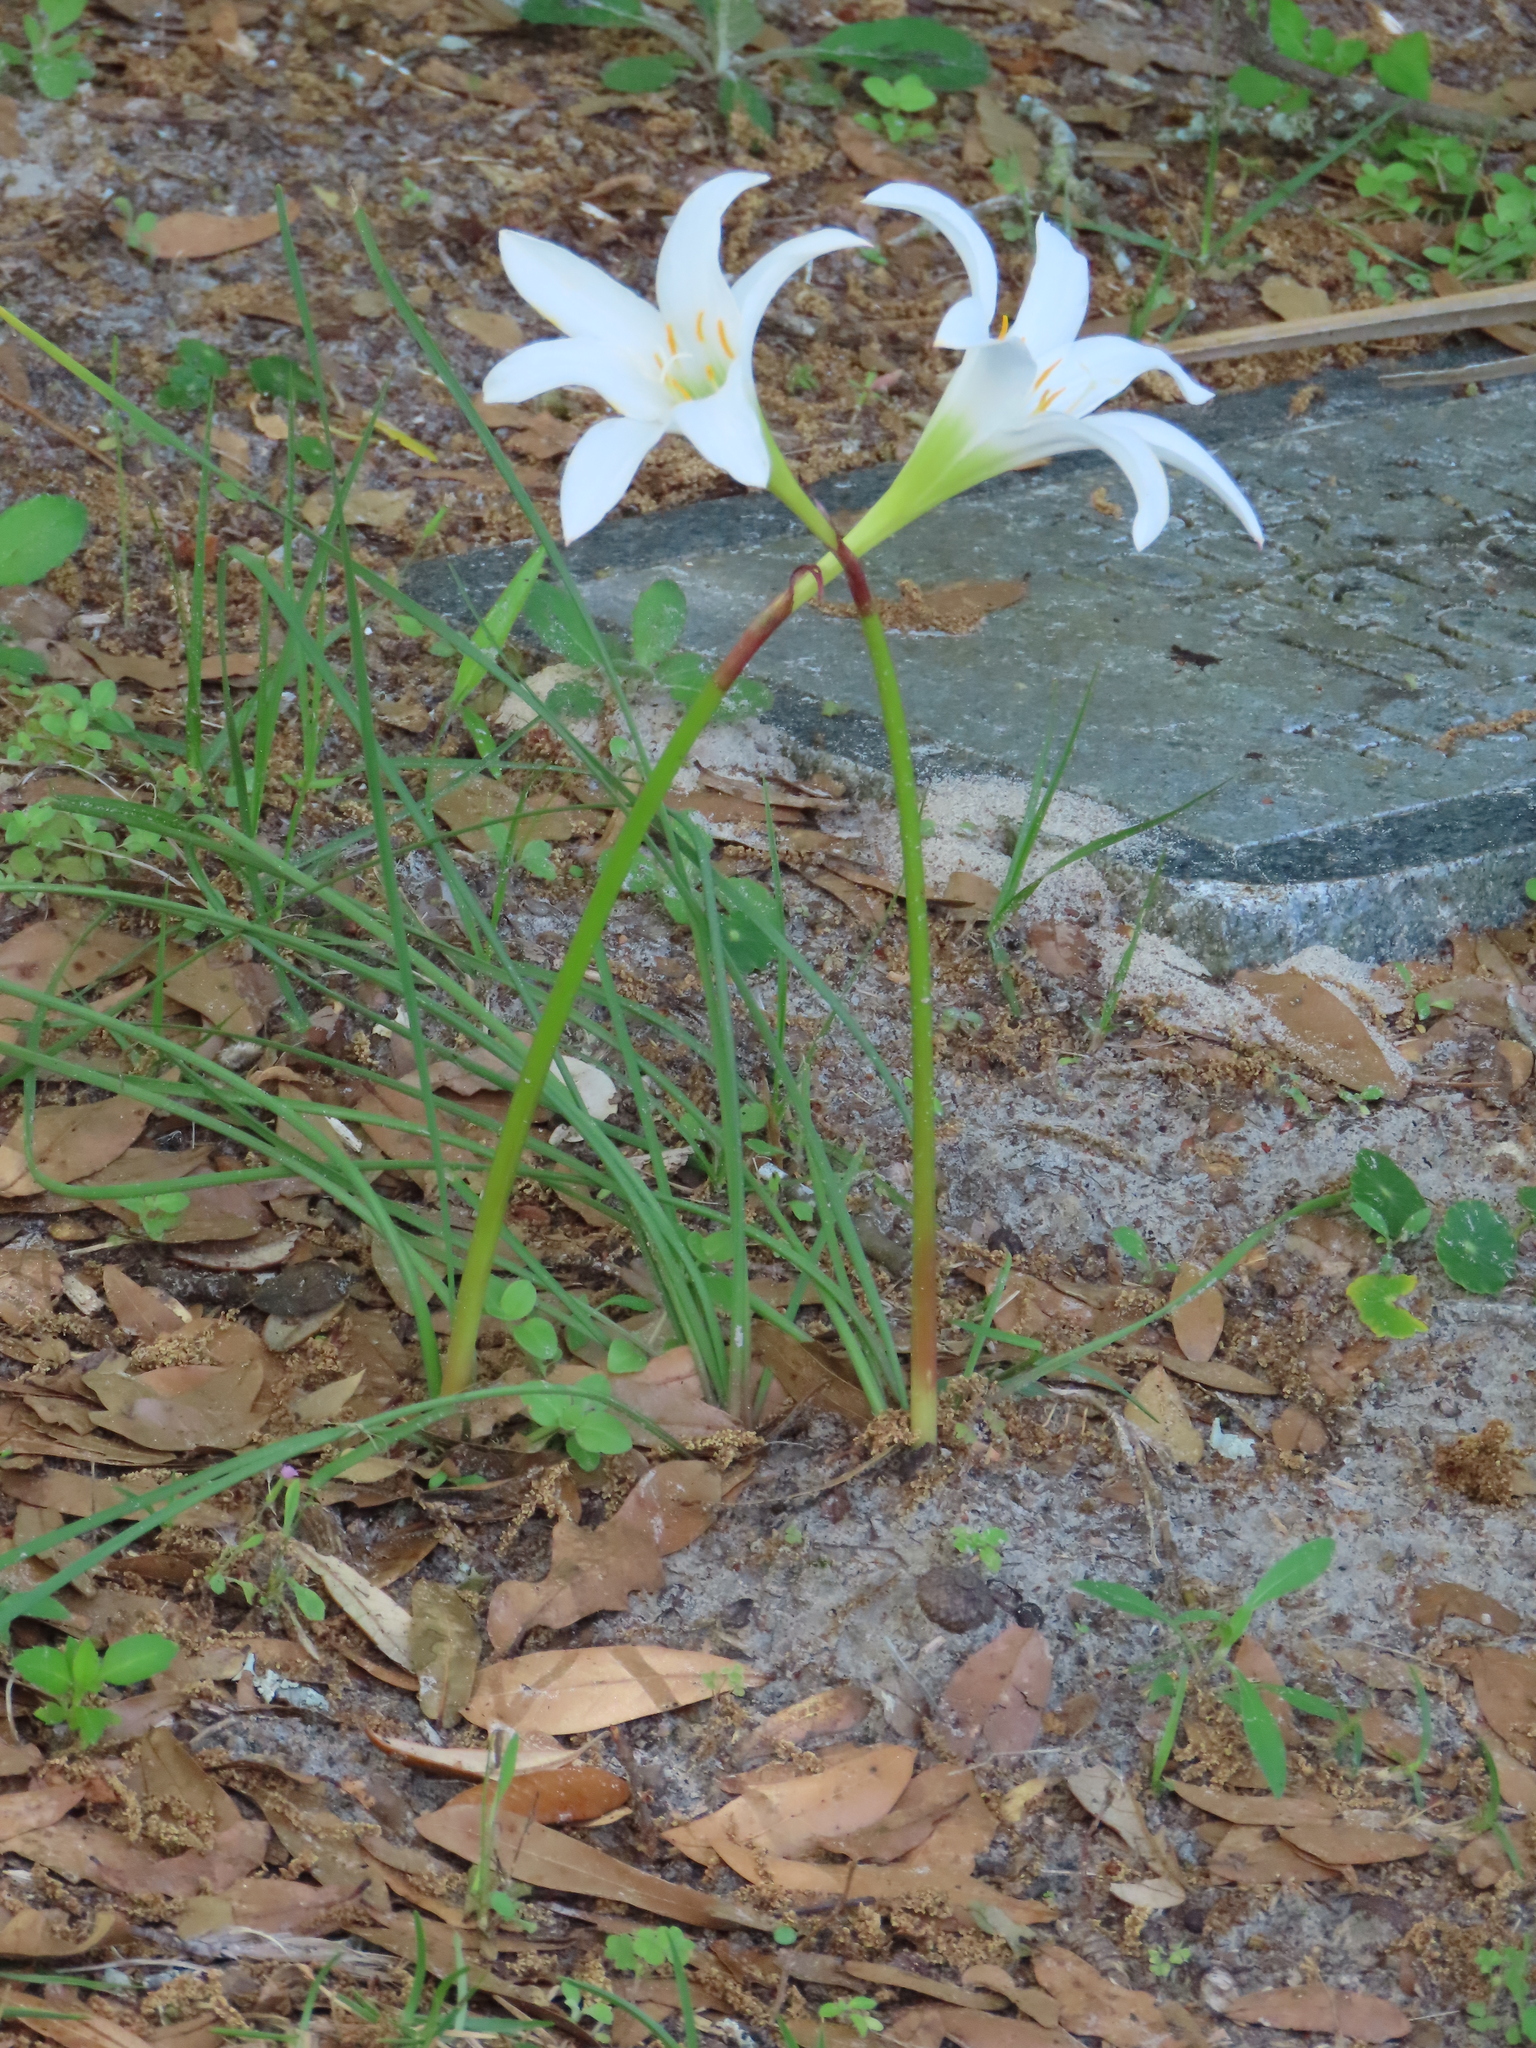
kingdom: Plantae
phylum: Tracheophyta
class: Liliopsida
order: Asparagales
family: Amaryllidaceae
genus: Zephyranthes
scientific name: Zephyranthes treatiae
